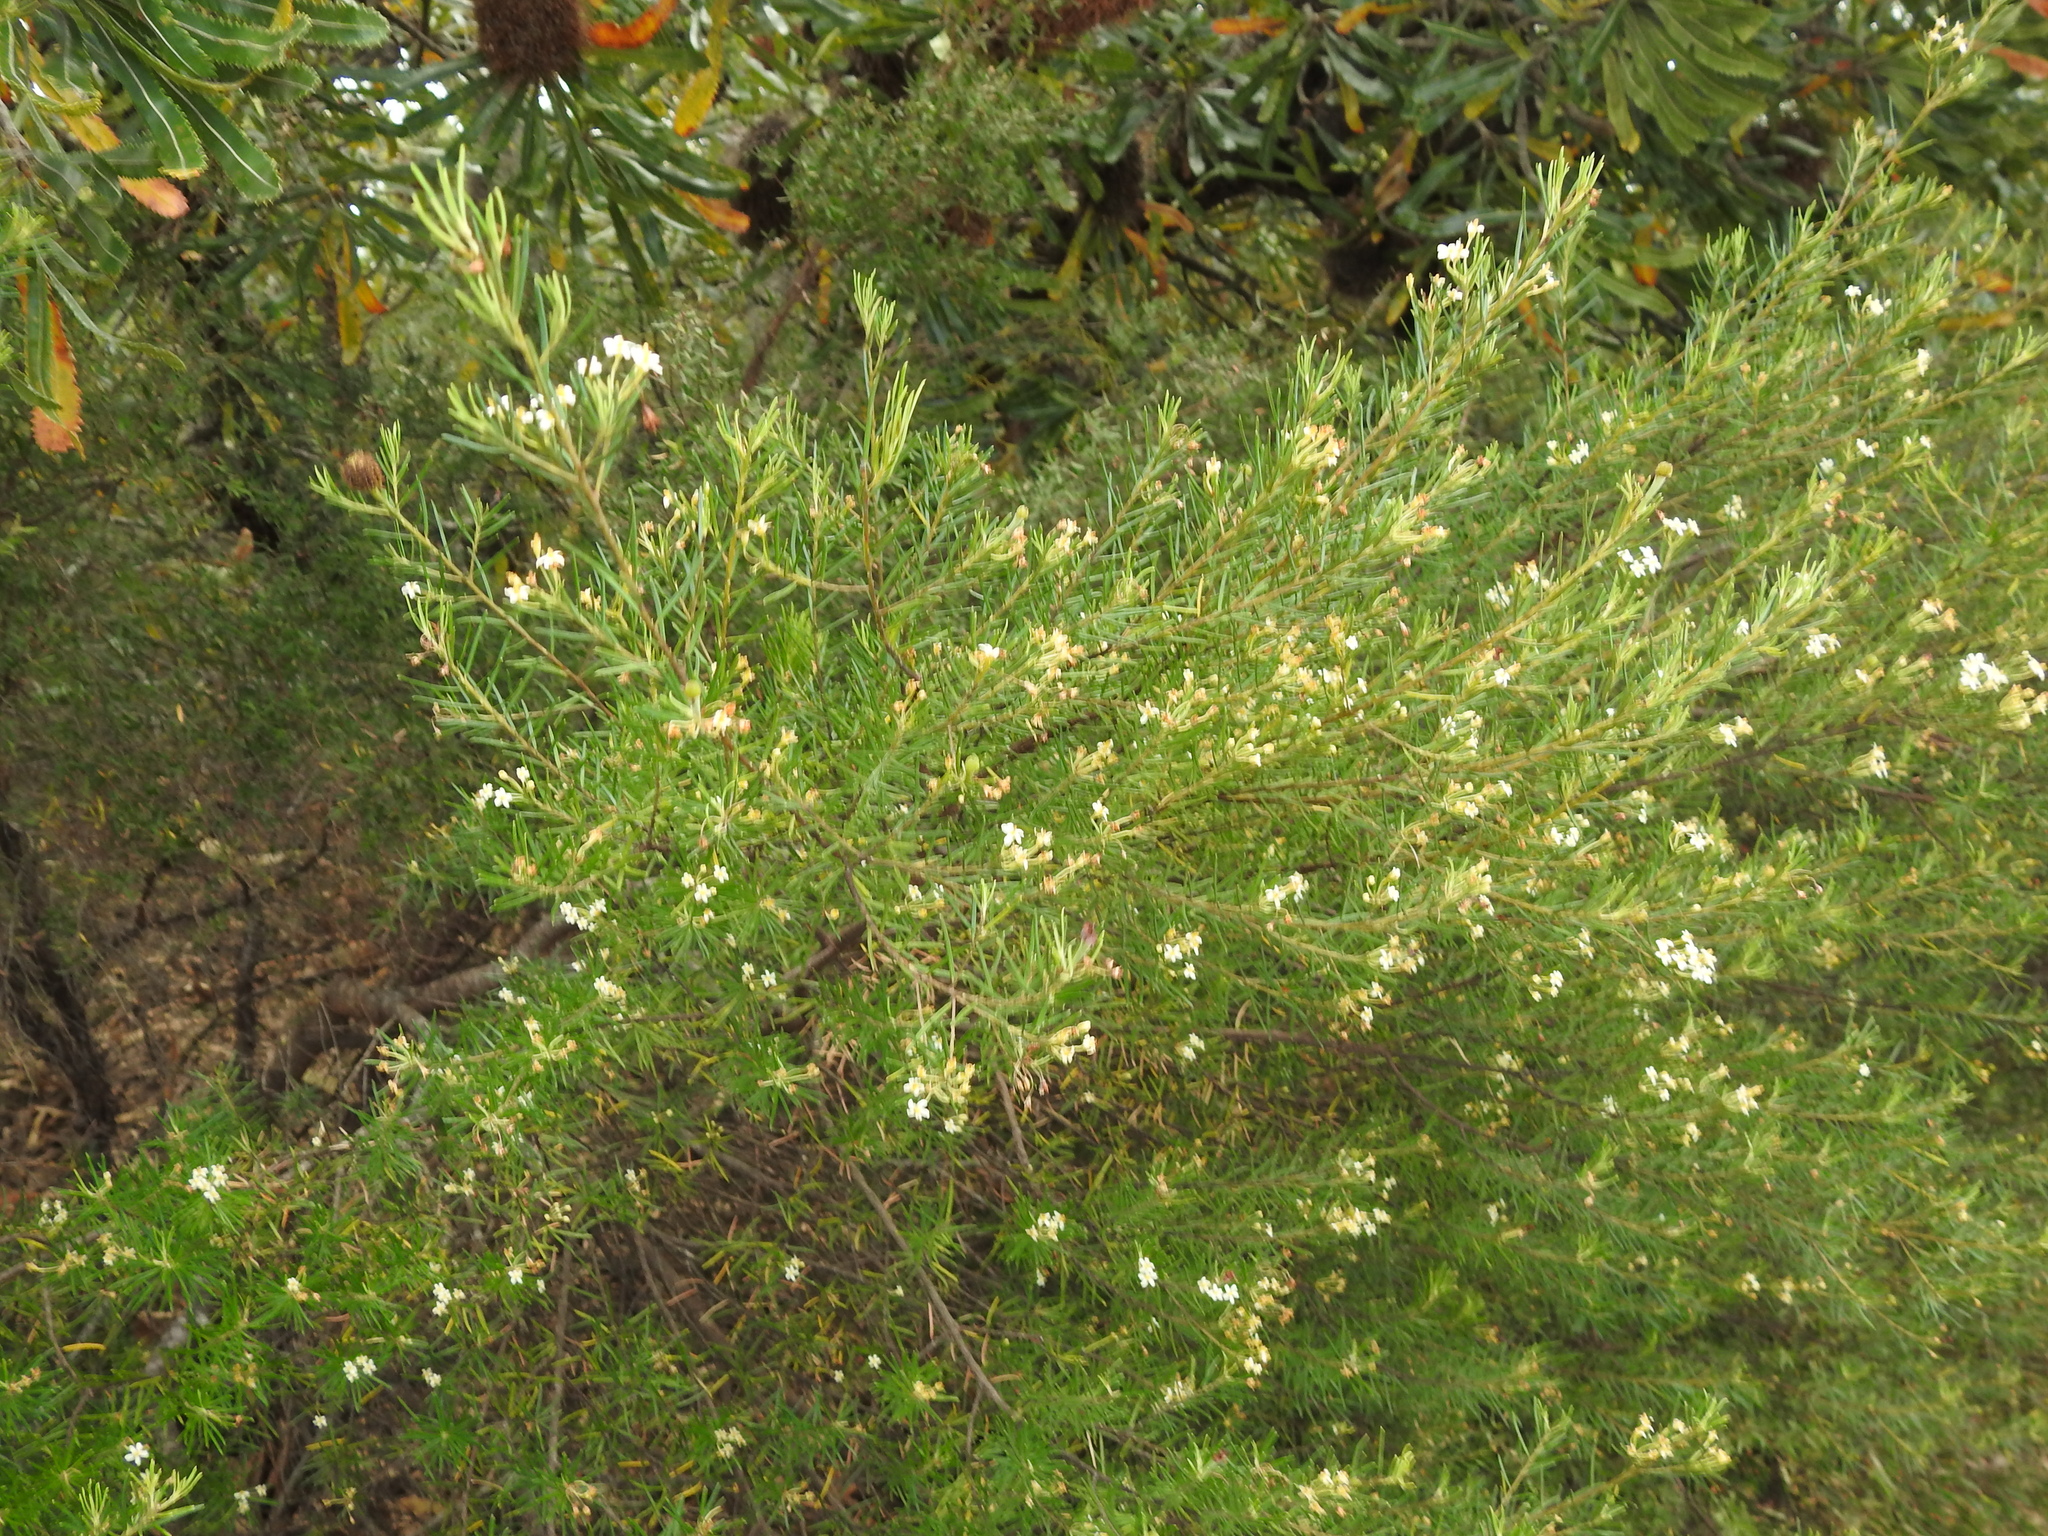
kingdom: Plantae
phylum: Tracheophyta
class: Magnoliopsida
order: Malpighiales
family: Euphorbiaceae
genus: Ricinocarpos
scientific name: Ricinocarpos pinifolius
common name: Weddingbush
